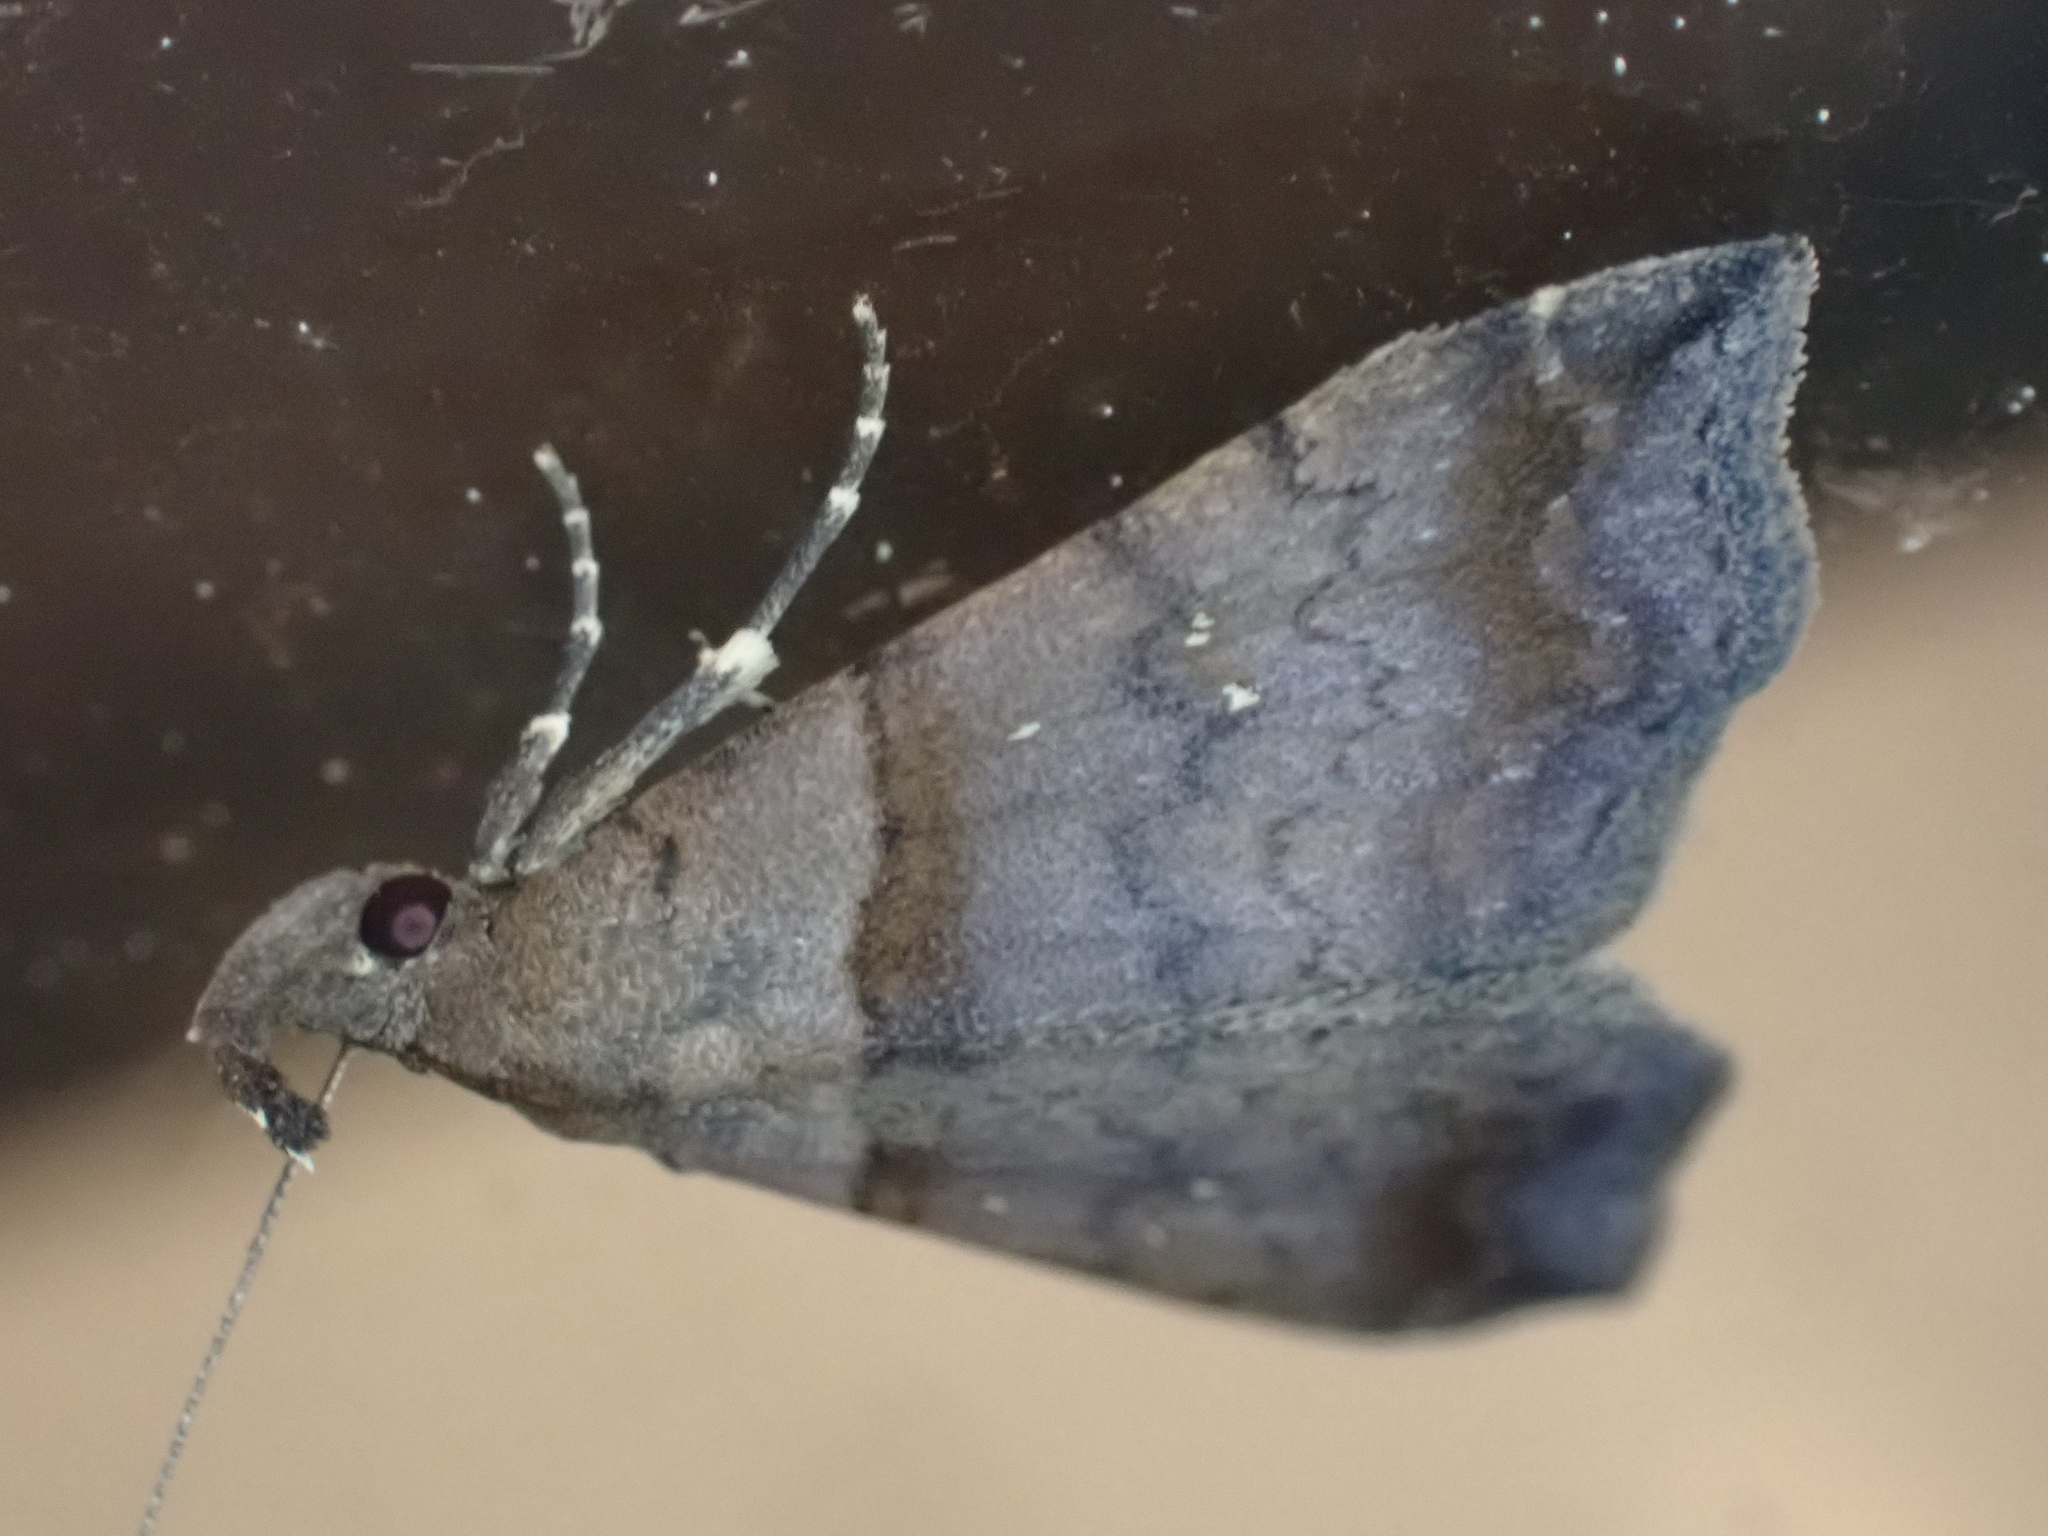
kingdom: Animalia
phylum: Arthropoda
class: Insecta
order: Lepidoptera
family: Erebidae
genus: Lascoria
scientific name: Lascoria ambigualis
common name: Ambiguous moth
